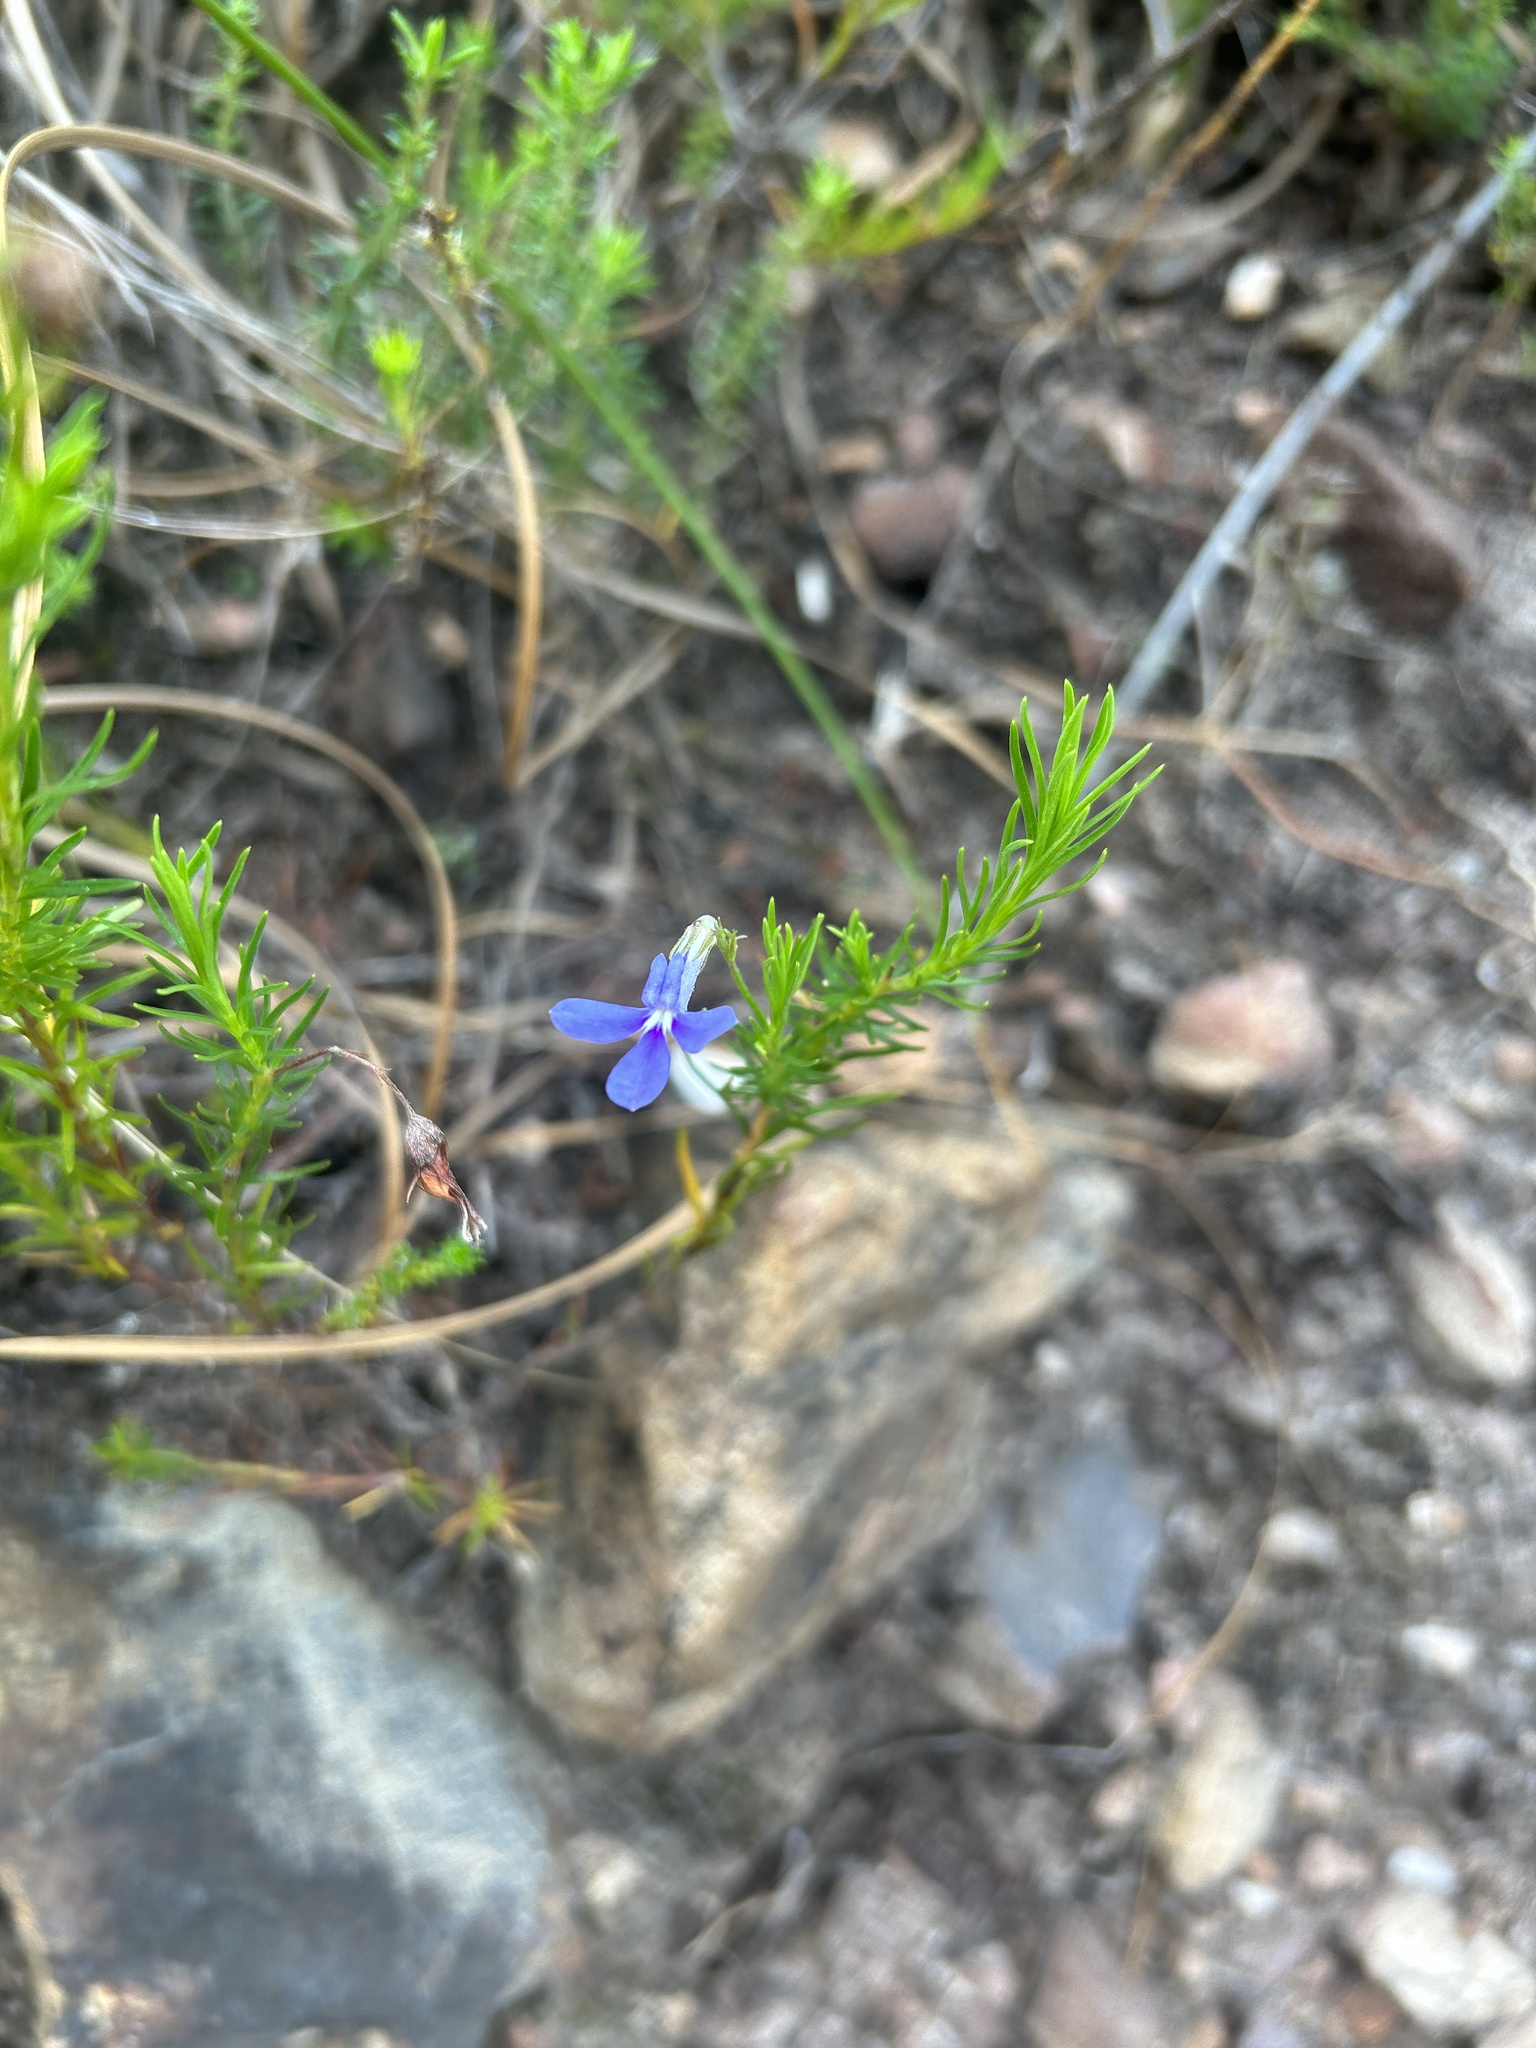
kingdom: Plantae
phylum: Tracheophyta
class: Magnoliopsida
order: Asterales
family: Campanulaceae
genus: Lobelia
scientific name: Lobelia pinifolia
